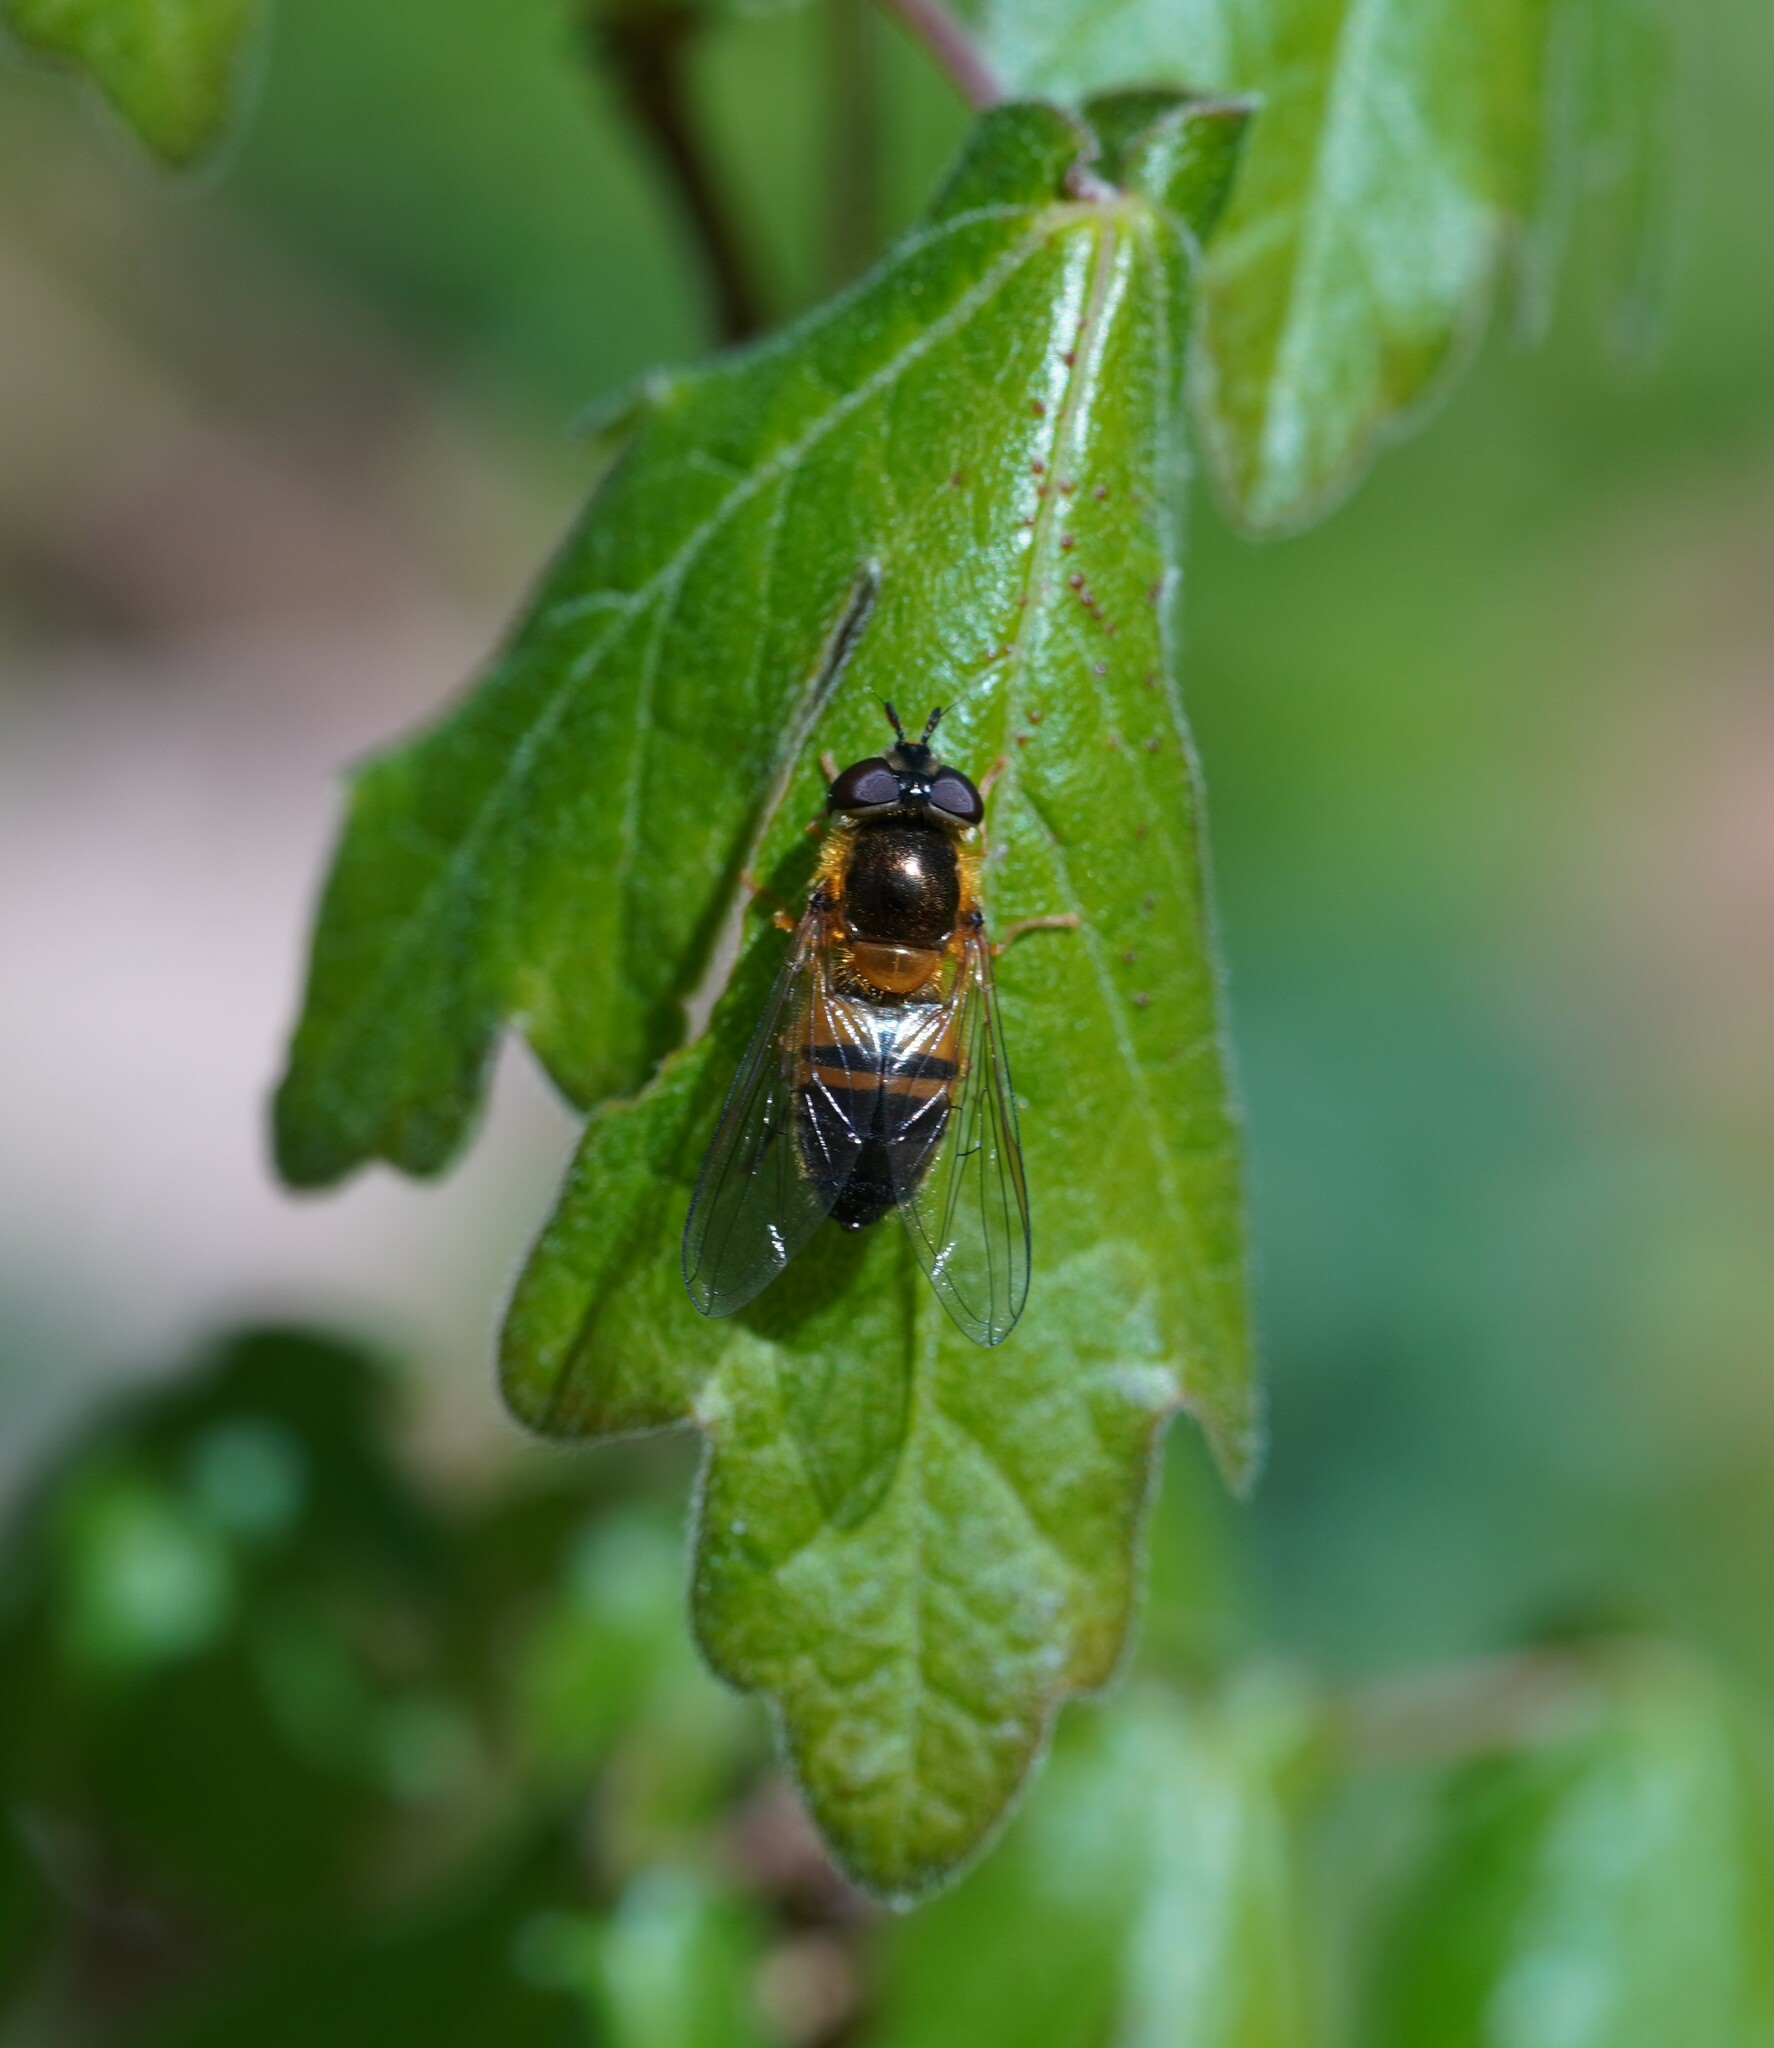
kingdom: Animalia
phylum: Arthropoda
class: Insecta
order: Diptera
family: Syrphidae
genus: Epistrophe
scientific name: Epistrophe eligans
